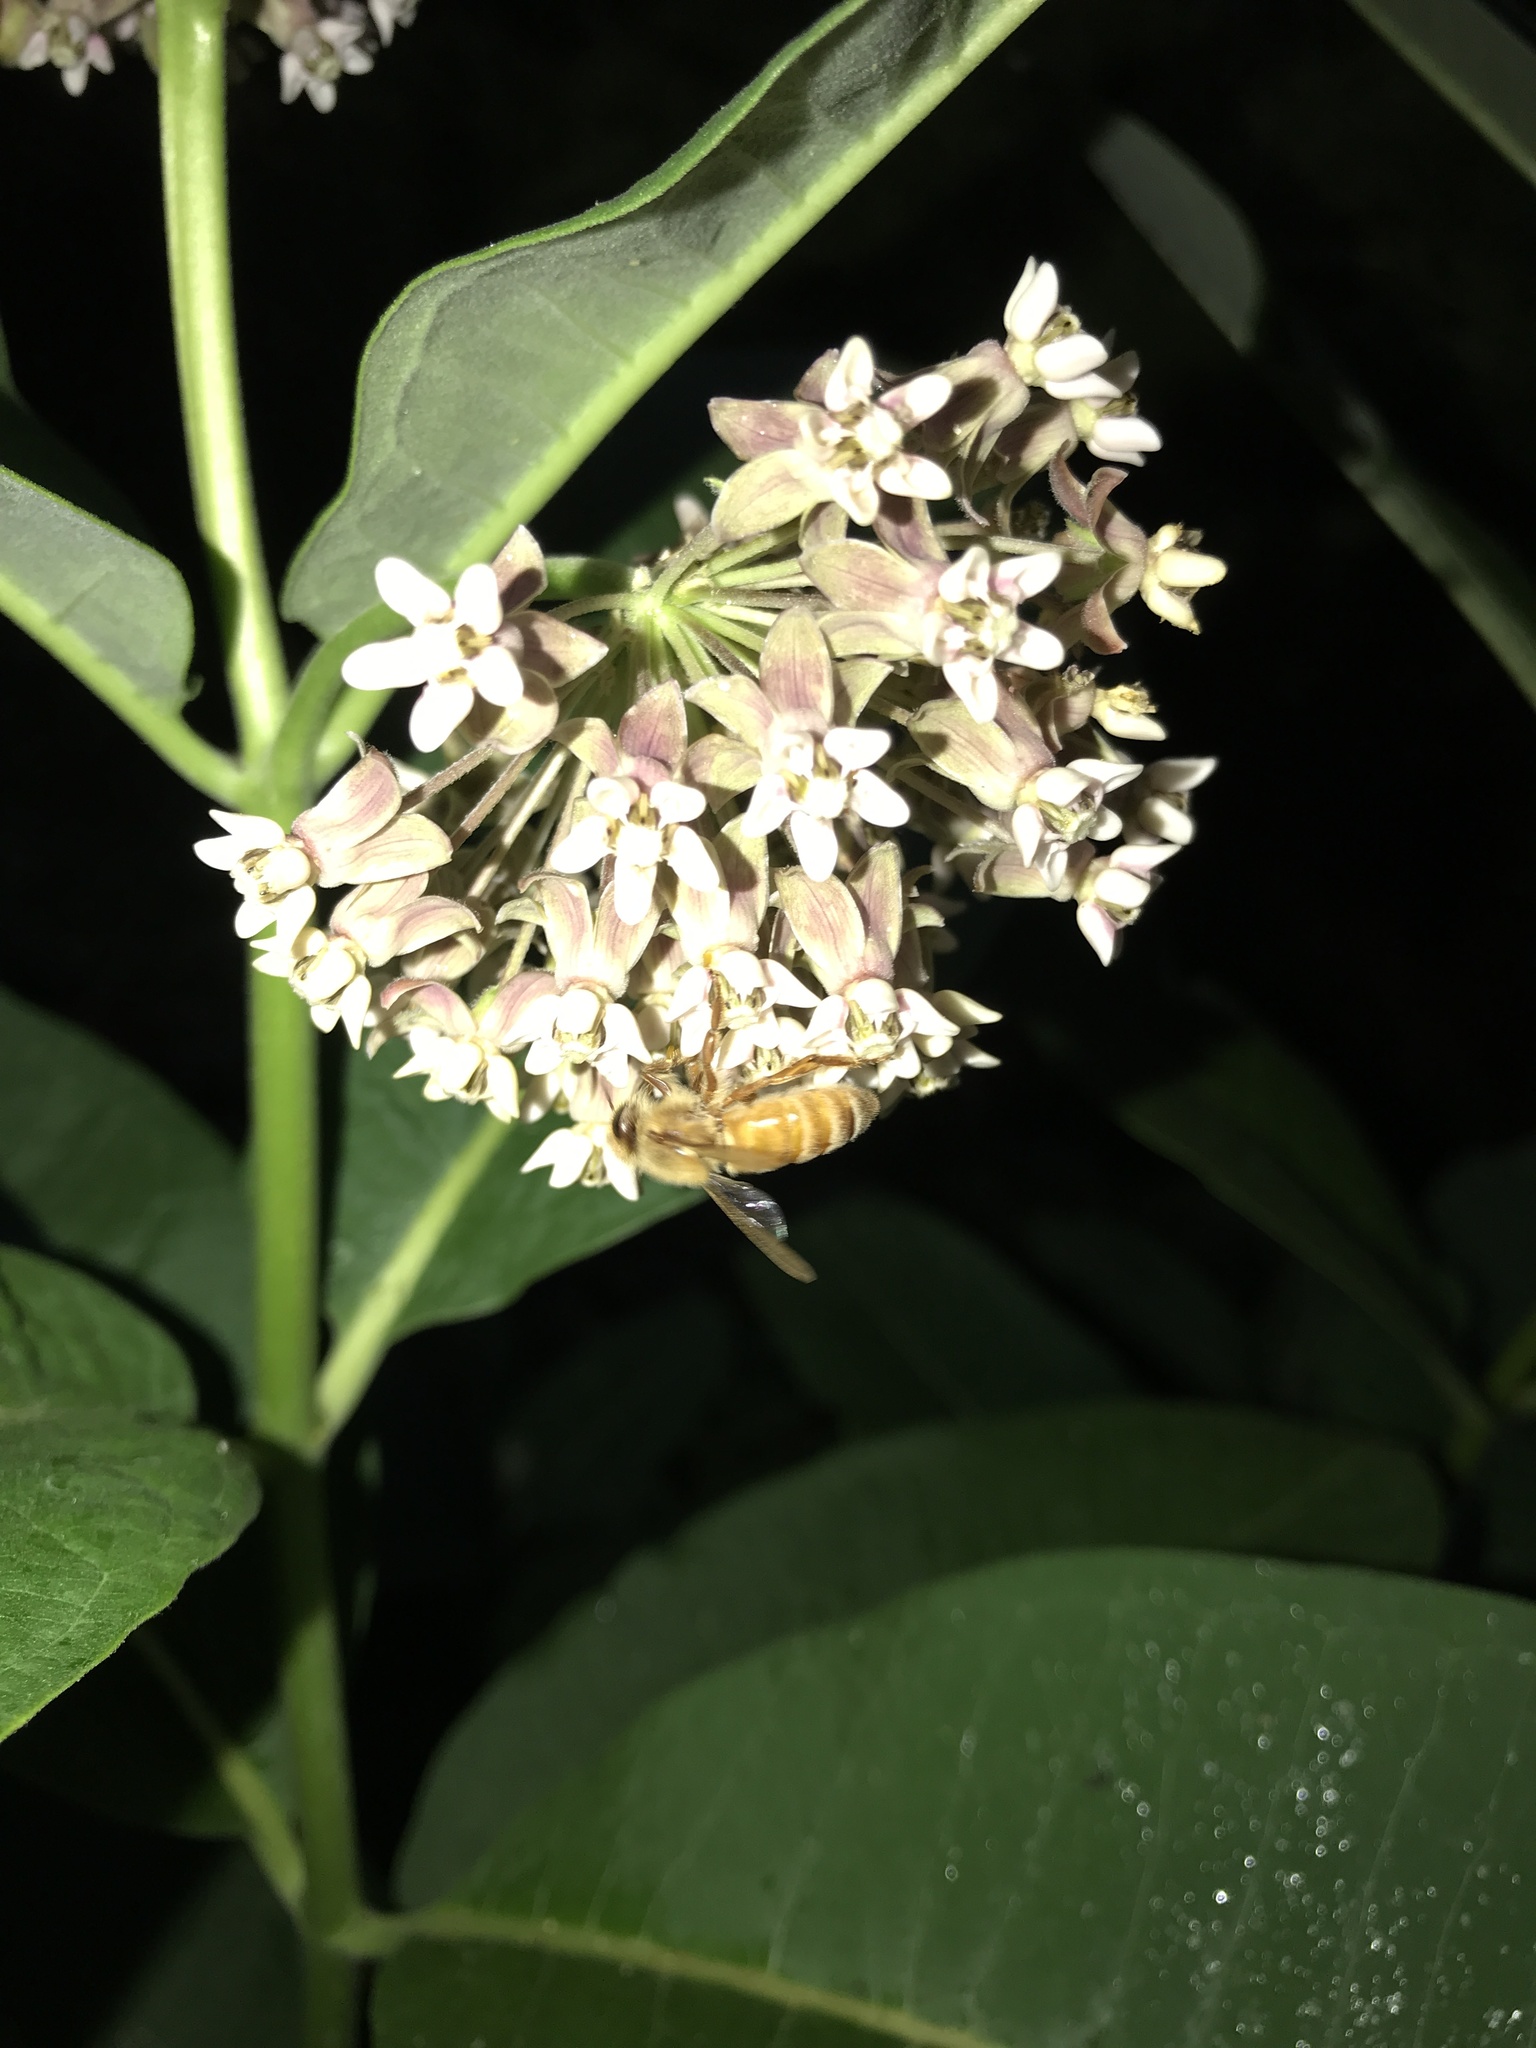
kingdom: Animalia
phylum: Arthropoda
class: Insecta
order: Hymenoptera
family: Apidae
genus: Apis
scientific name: Apis mellifera
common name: Honey bee
